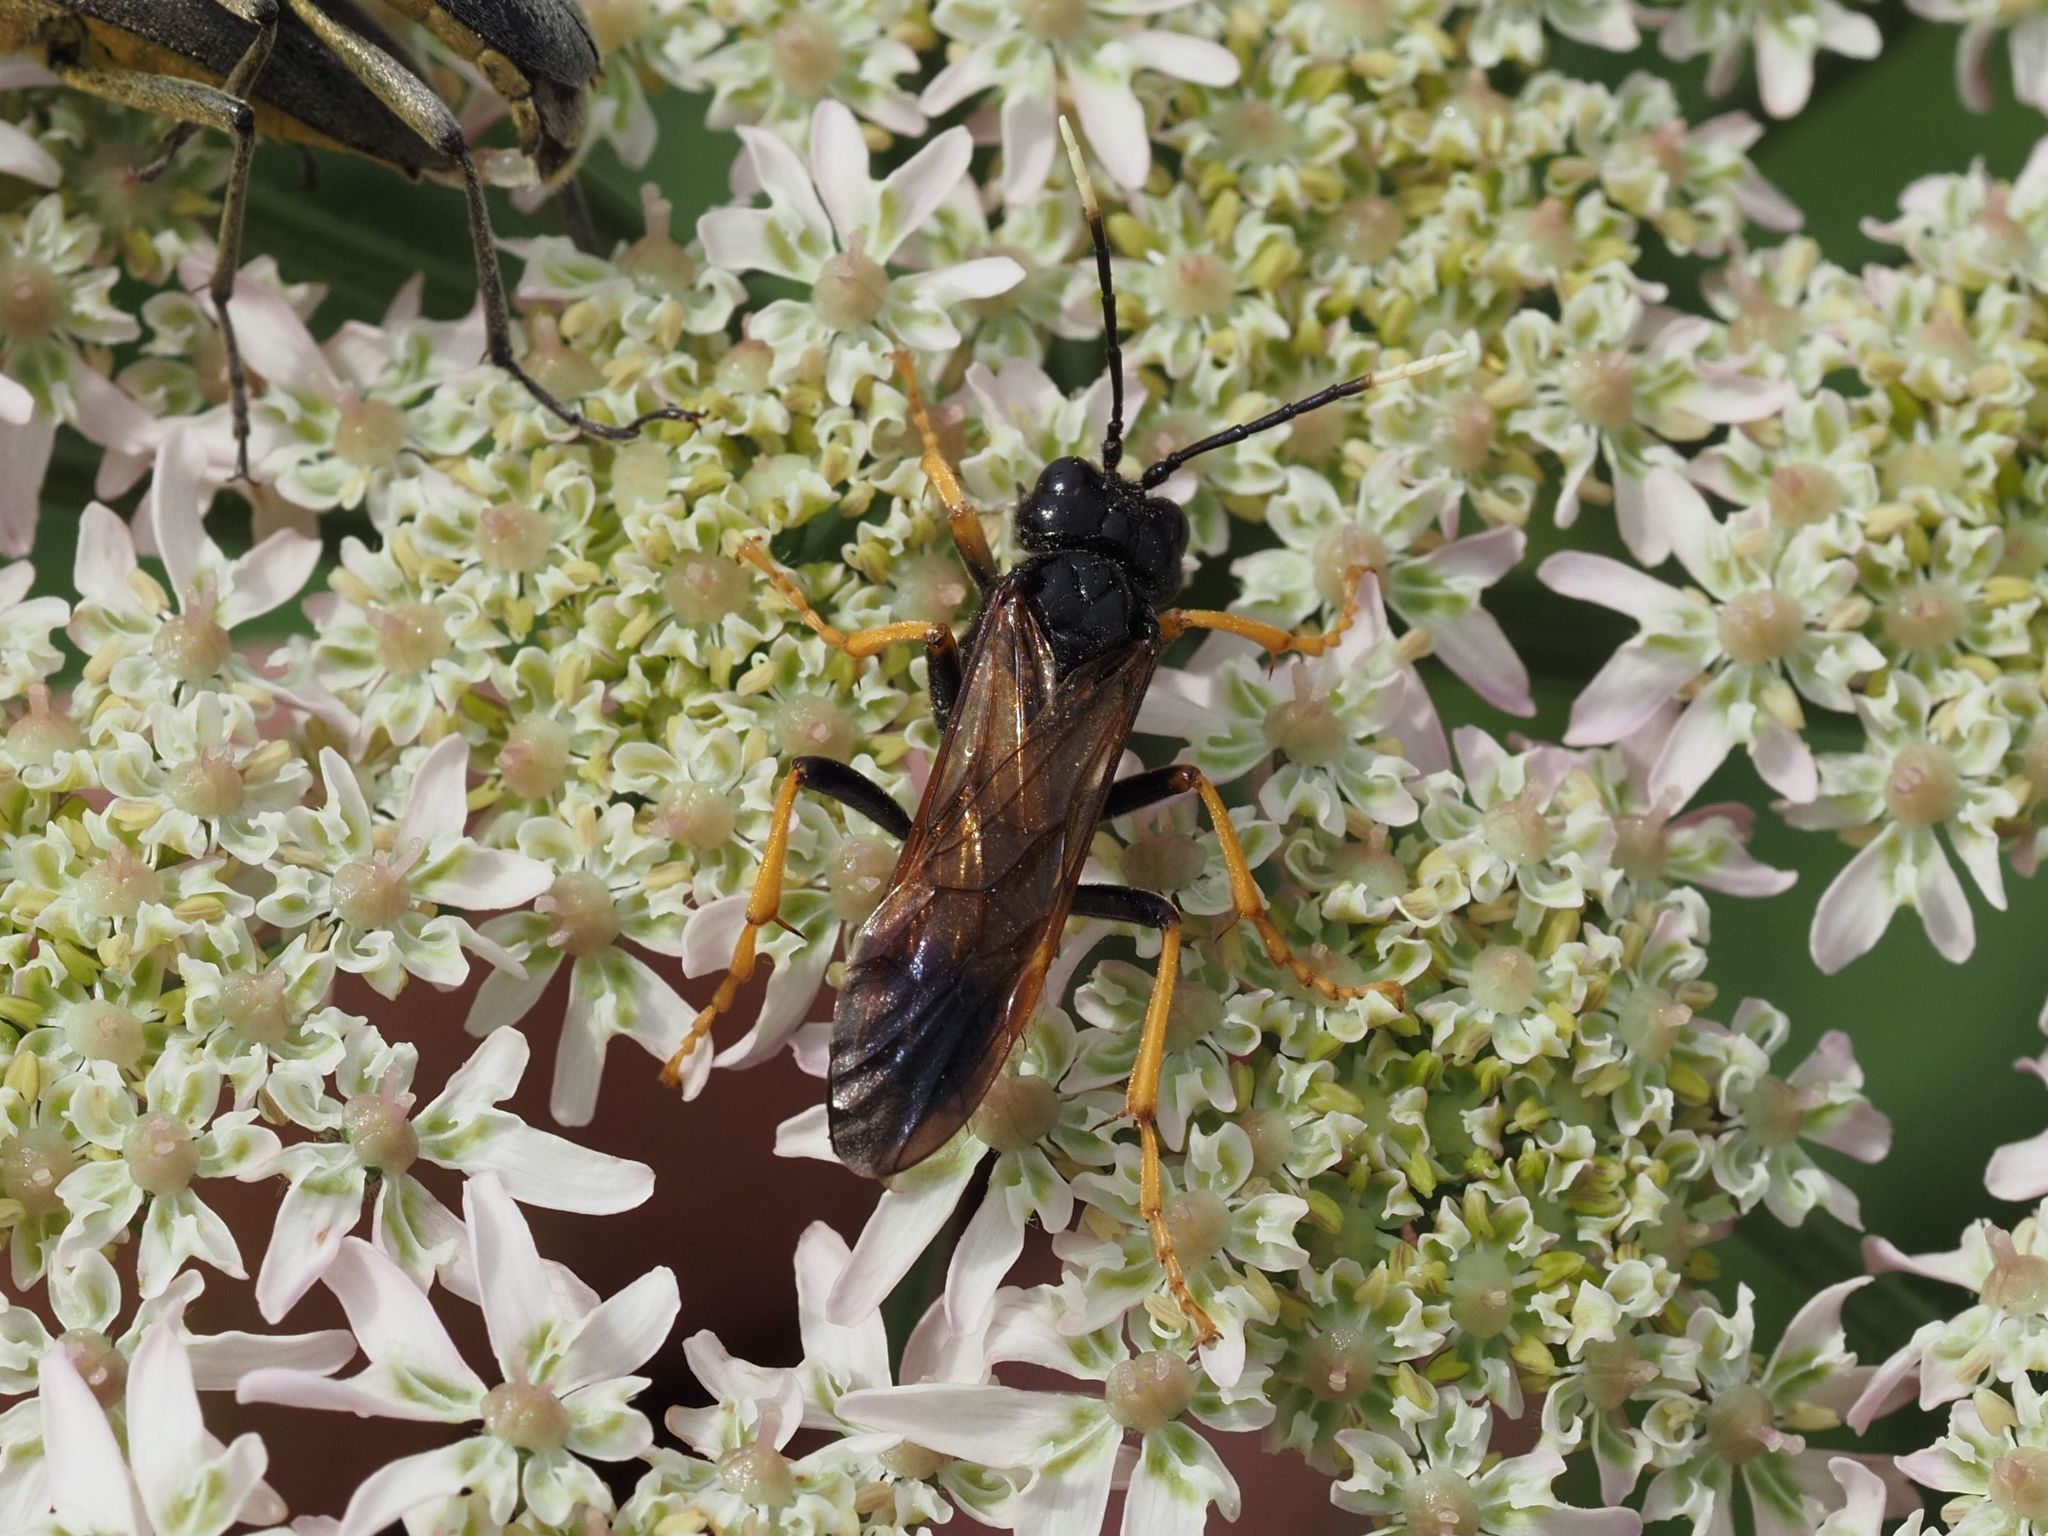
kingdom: Animalia
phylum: Arthropoda
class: Insecta
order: Hymenoptera
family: Tenthredinidae
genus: Tenthredo
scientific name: Tenthredo crassa
